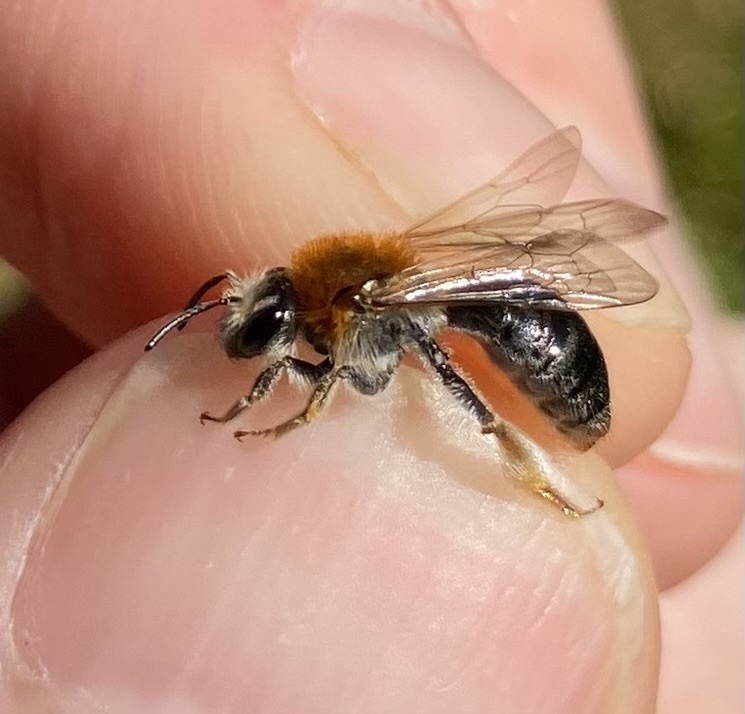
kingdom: Animalia
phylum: Arthropoda
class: Insecta
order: Hymenoptera
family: Andrenidae
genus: Andrena
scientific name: Andrena haemorrhoa
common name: Early mining bee
